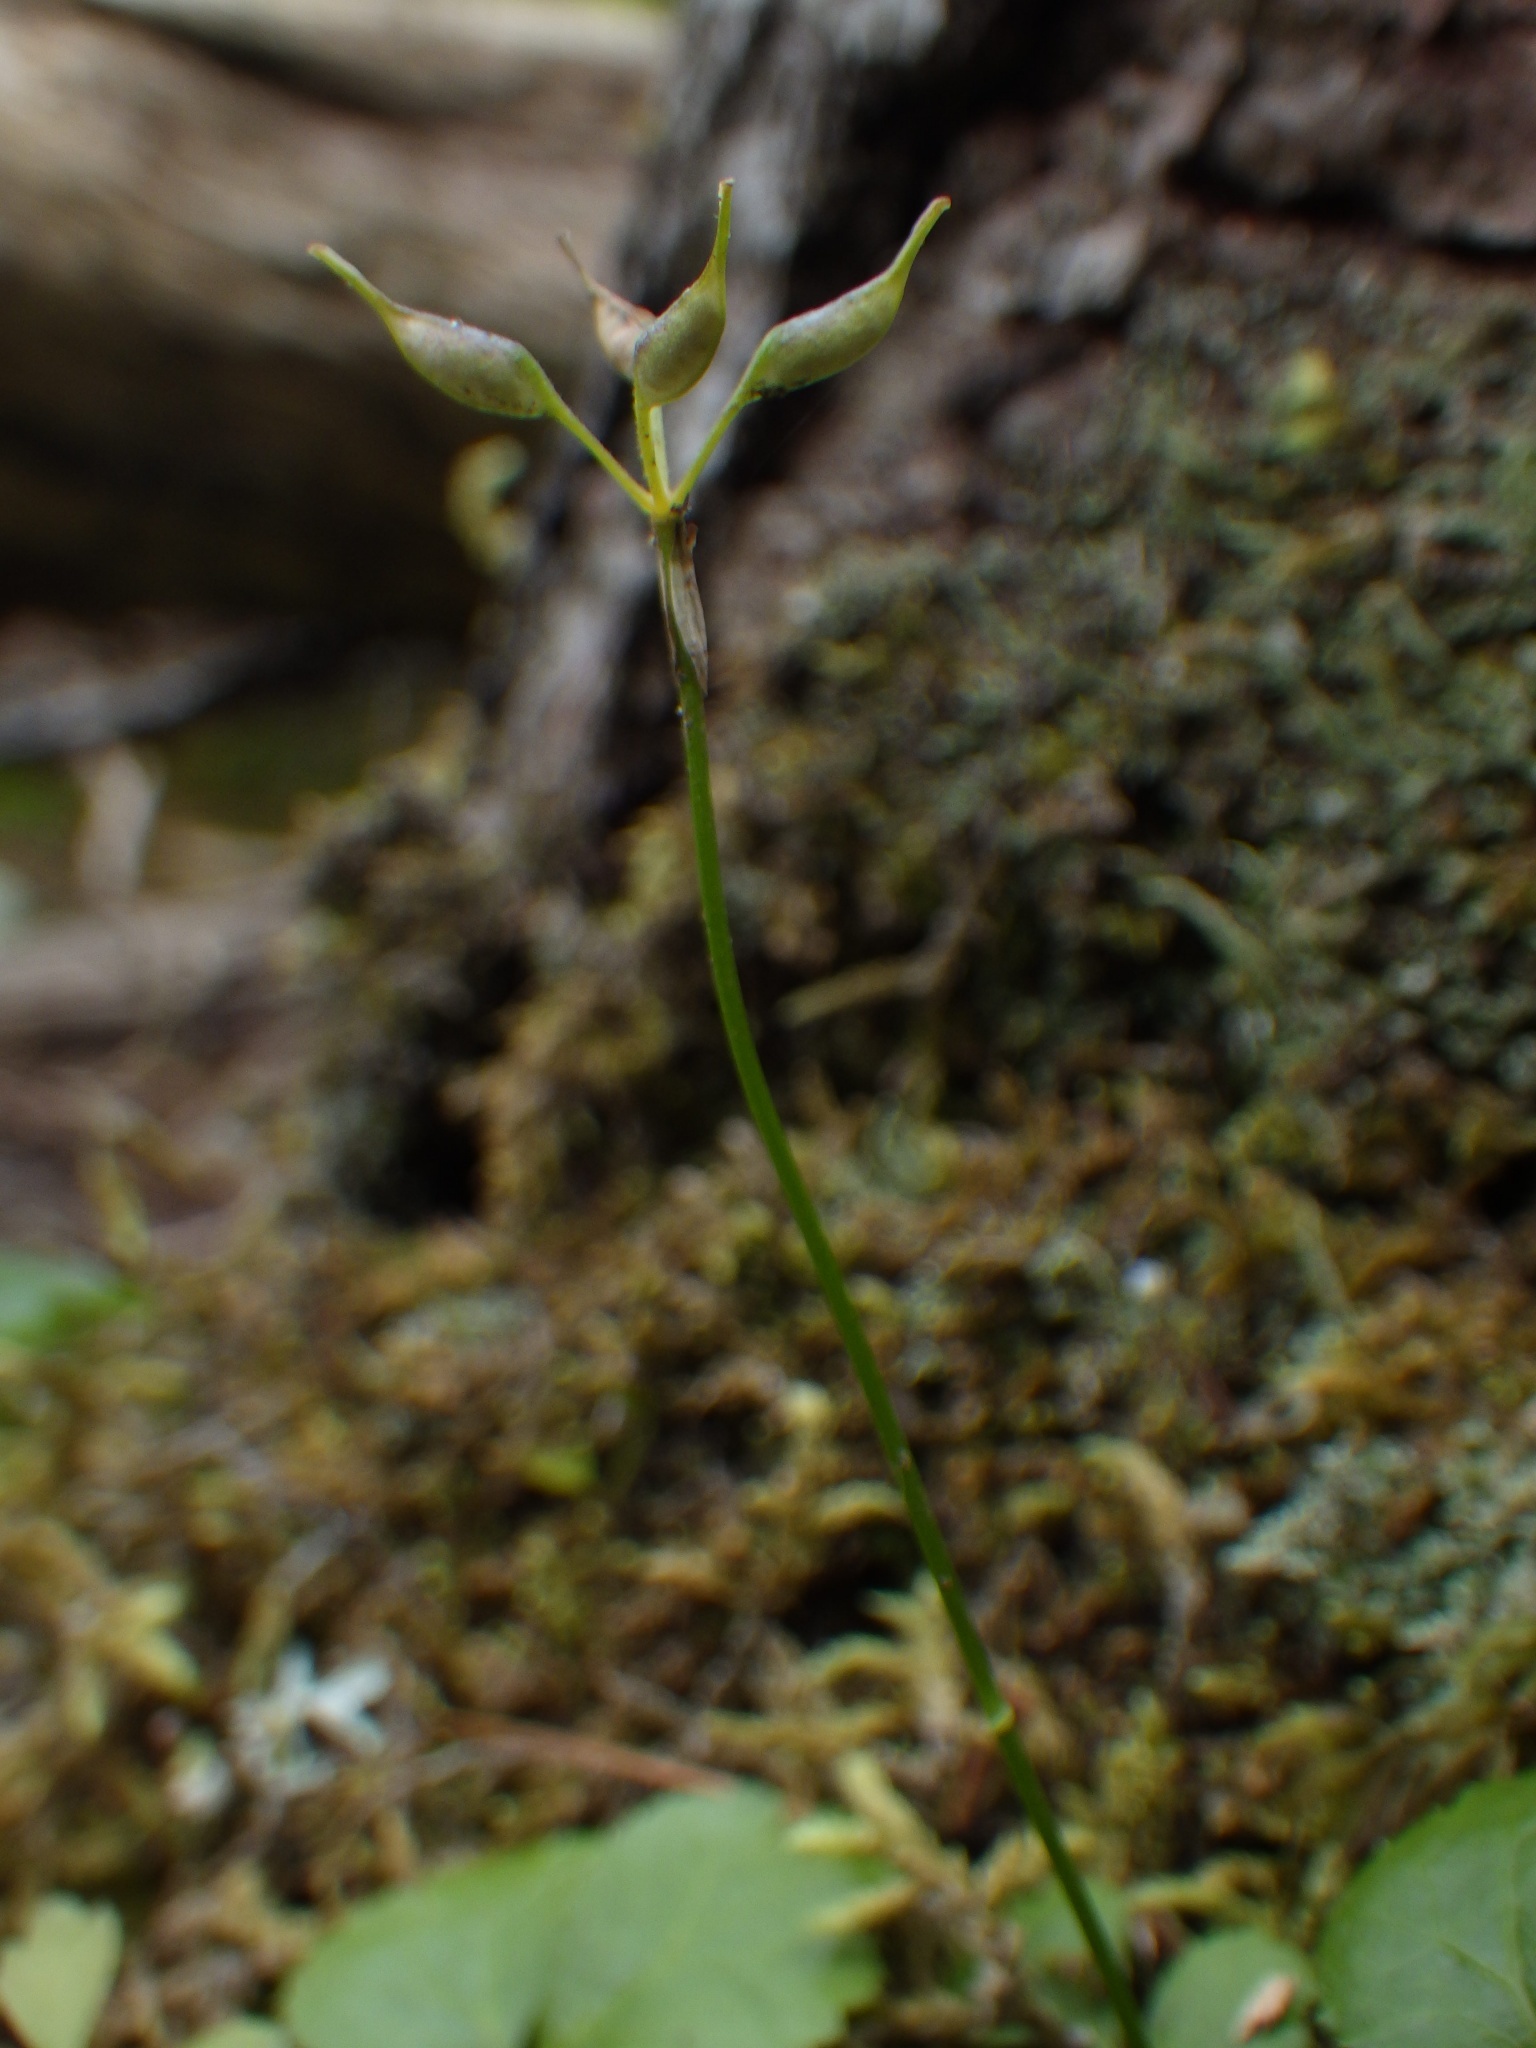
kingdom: Plantae
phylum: Tracheophyta
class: Magnoliopsida
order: Ranunculales
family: Ranunculaceae
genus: Coptis
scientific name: Coptis trifolia
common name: Canker-root
